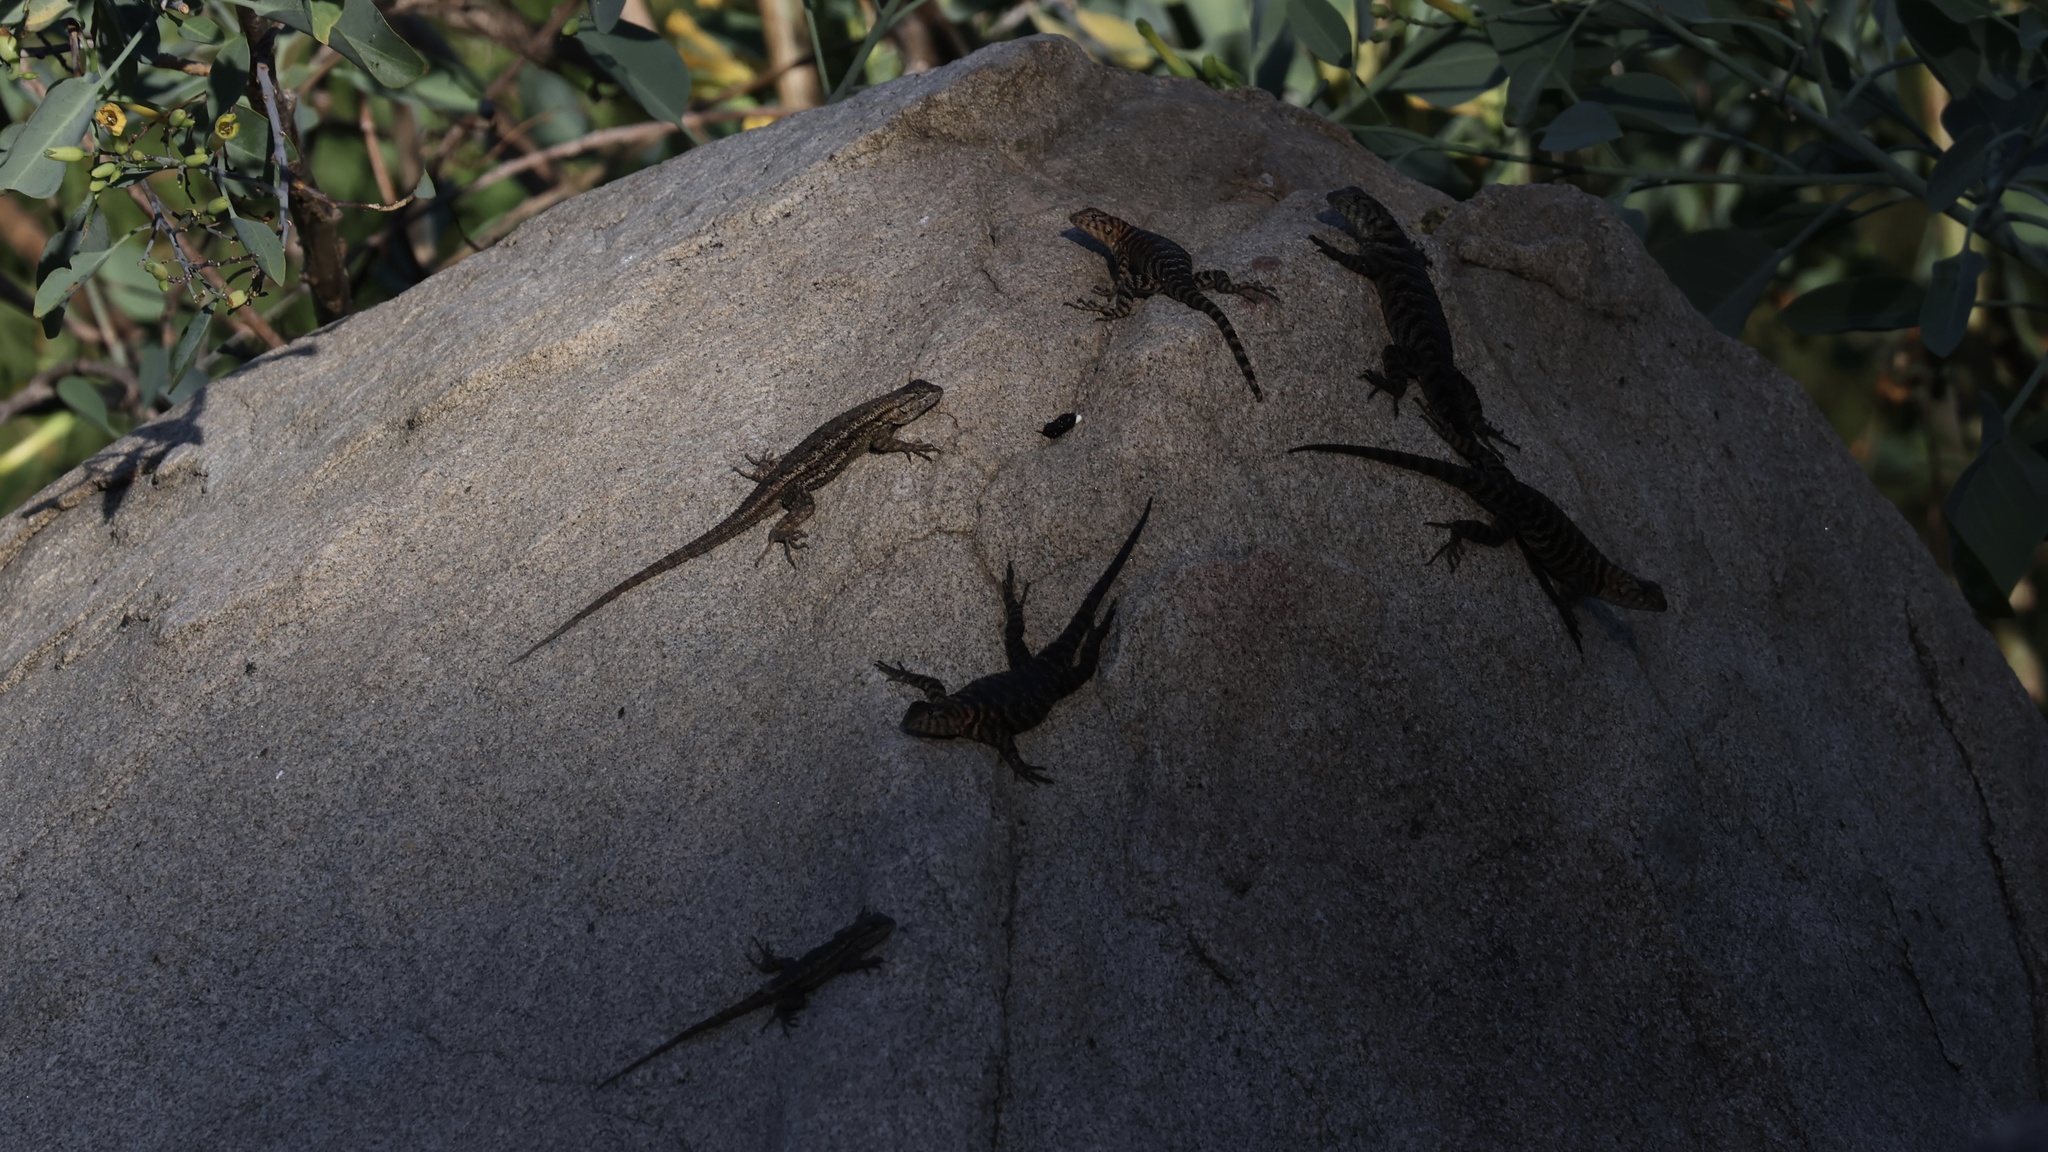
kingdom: Animalia
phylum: Chordata
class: Squamata
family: Phrynosomatidae
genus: Sceloporus
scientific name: Sceloporus orcutti
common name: Granite spiny lizard
